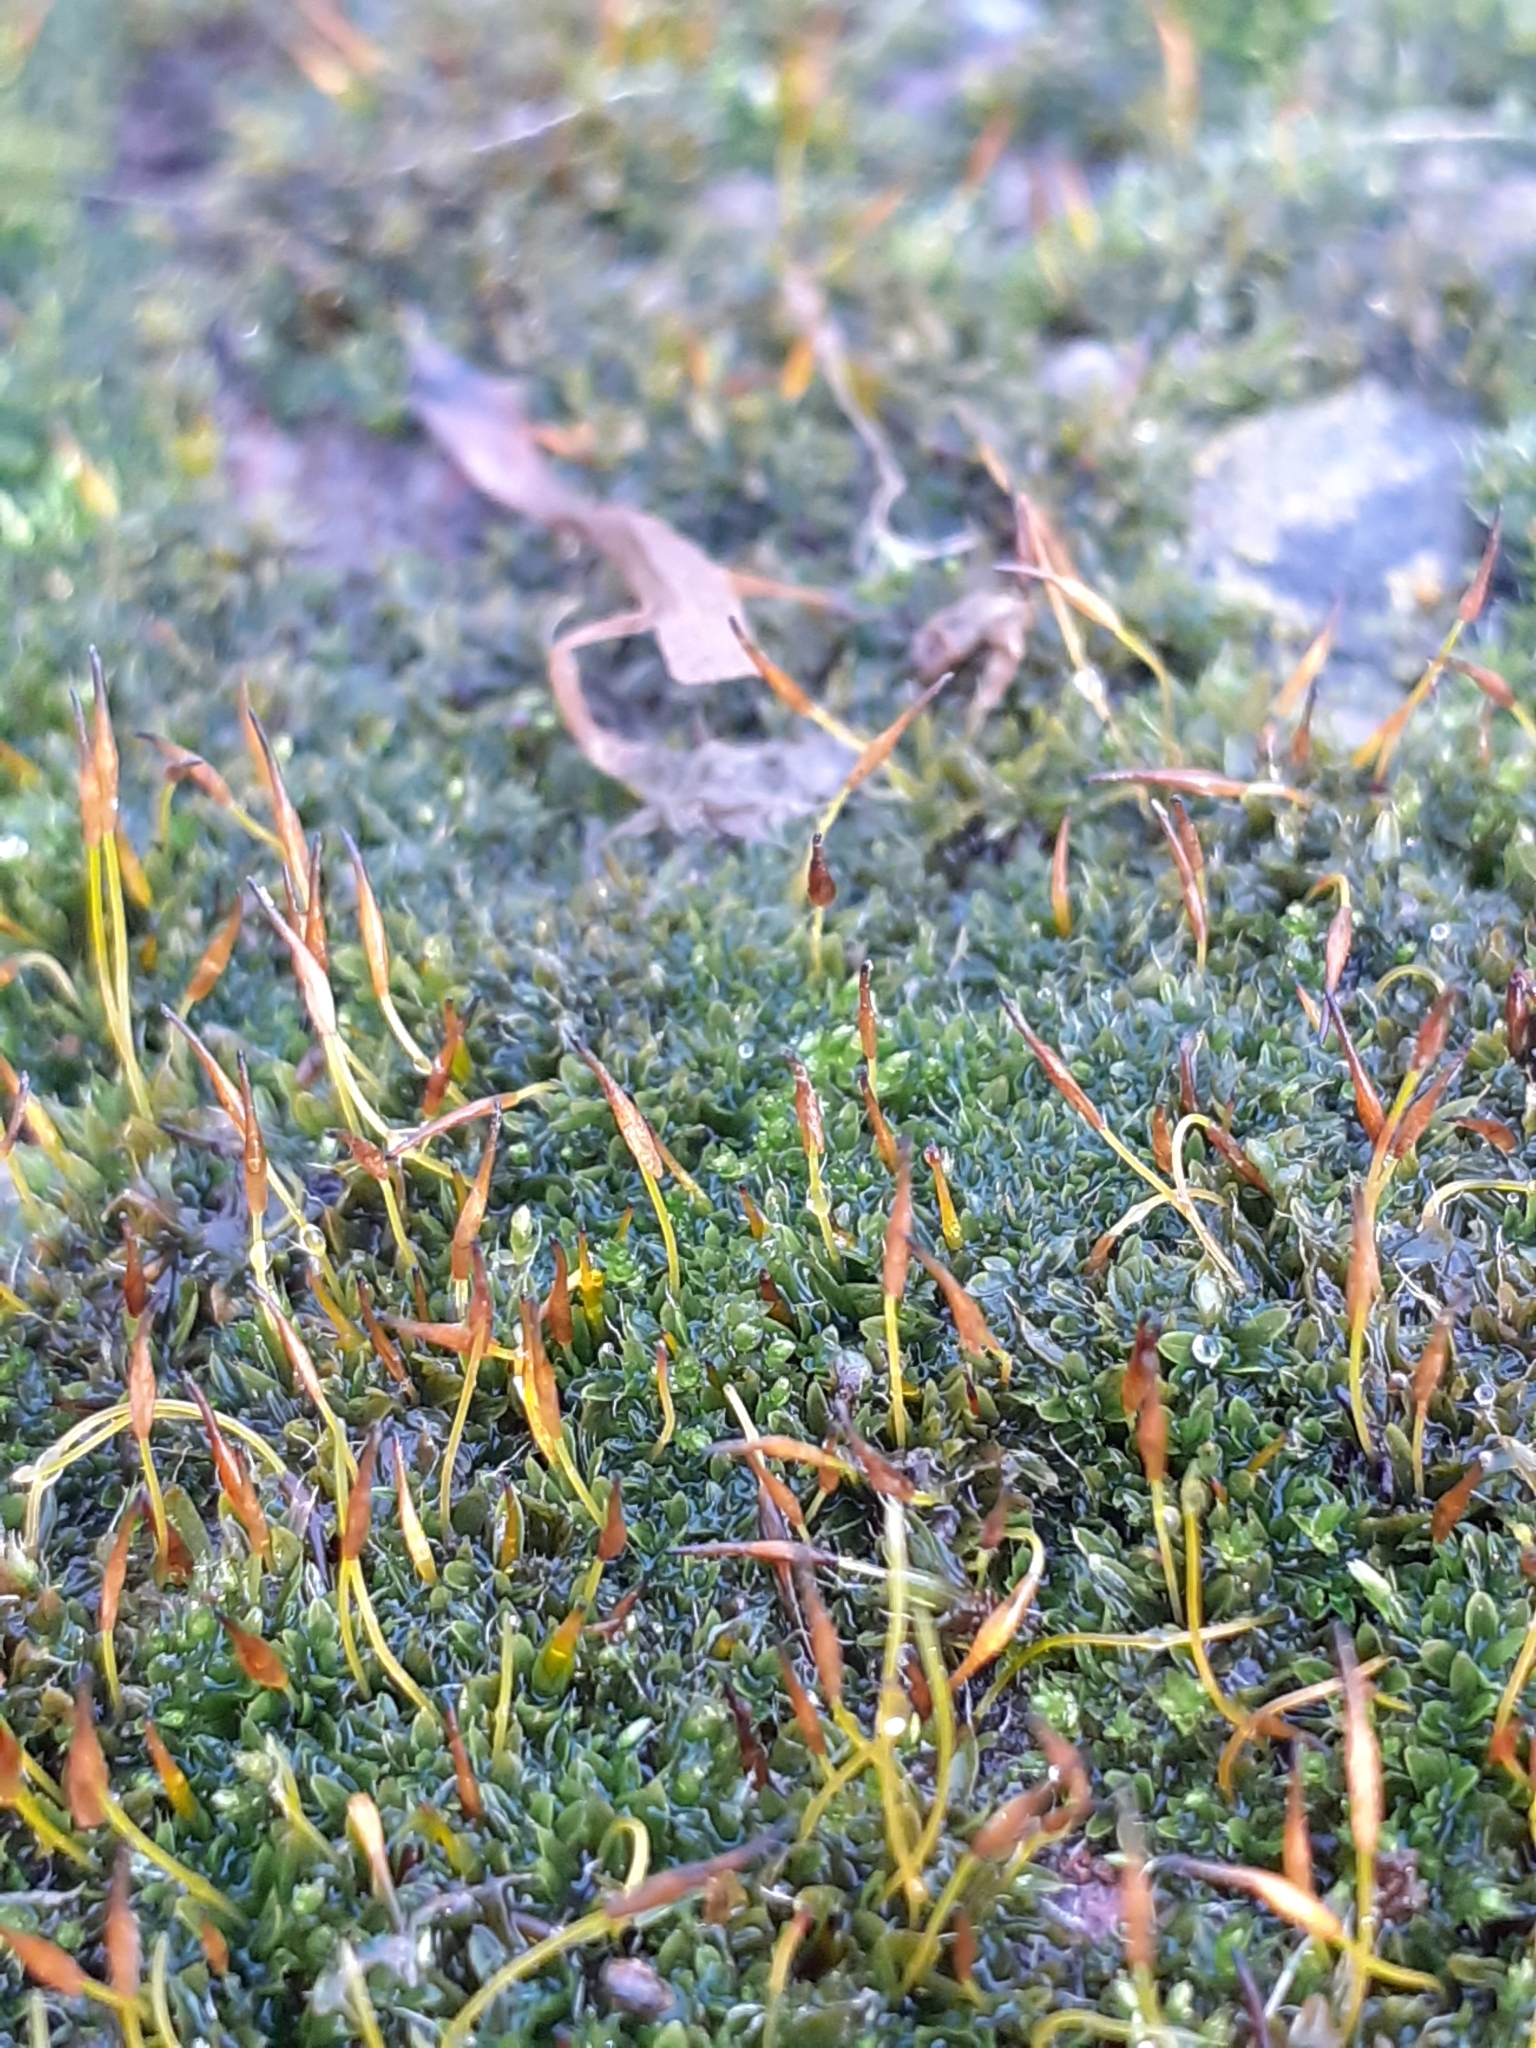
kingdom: Plantae
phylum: Bryophyta
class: Bryopsida
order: Pottiales
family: Pottiaceae
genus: Tortula
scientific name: Tortula muralis
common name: Wall screw-moss
